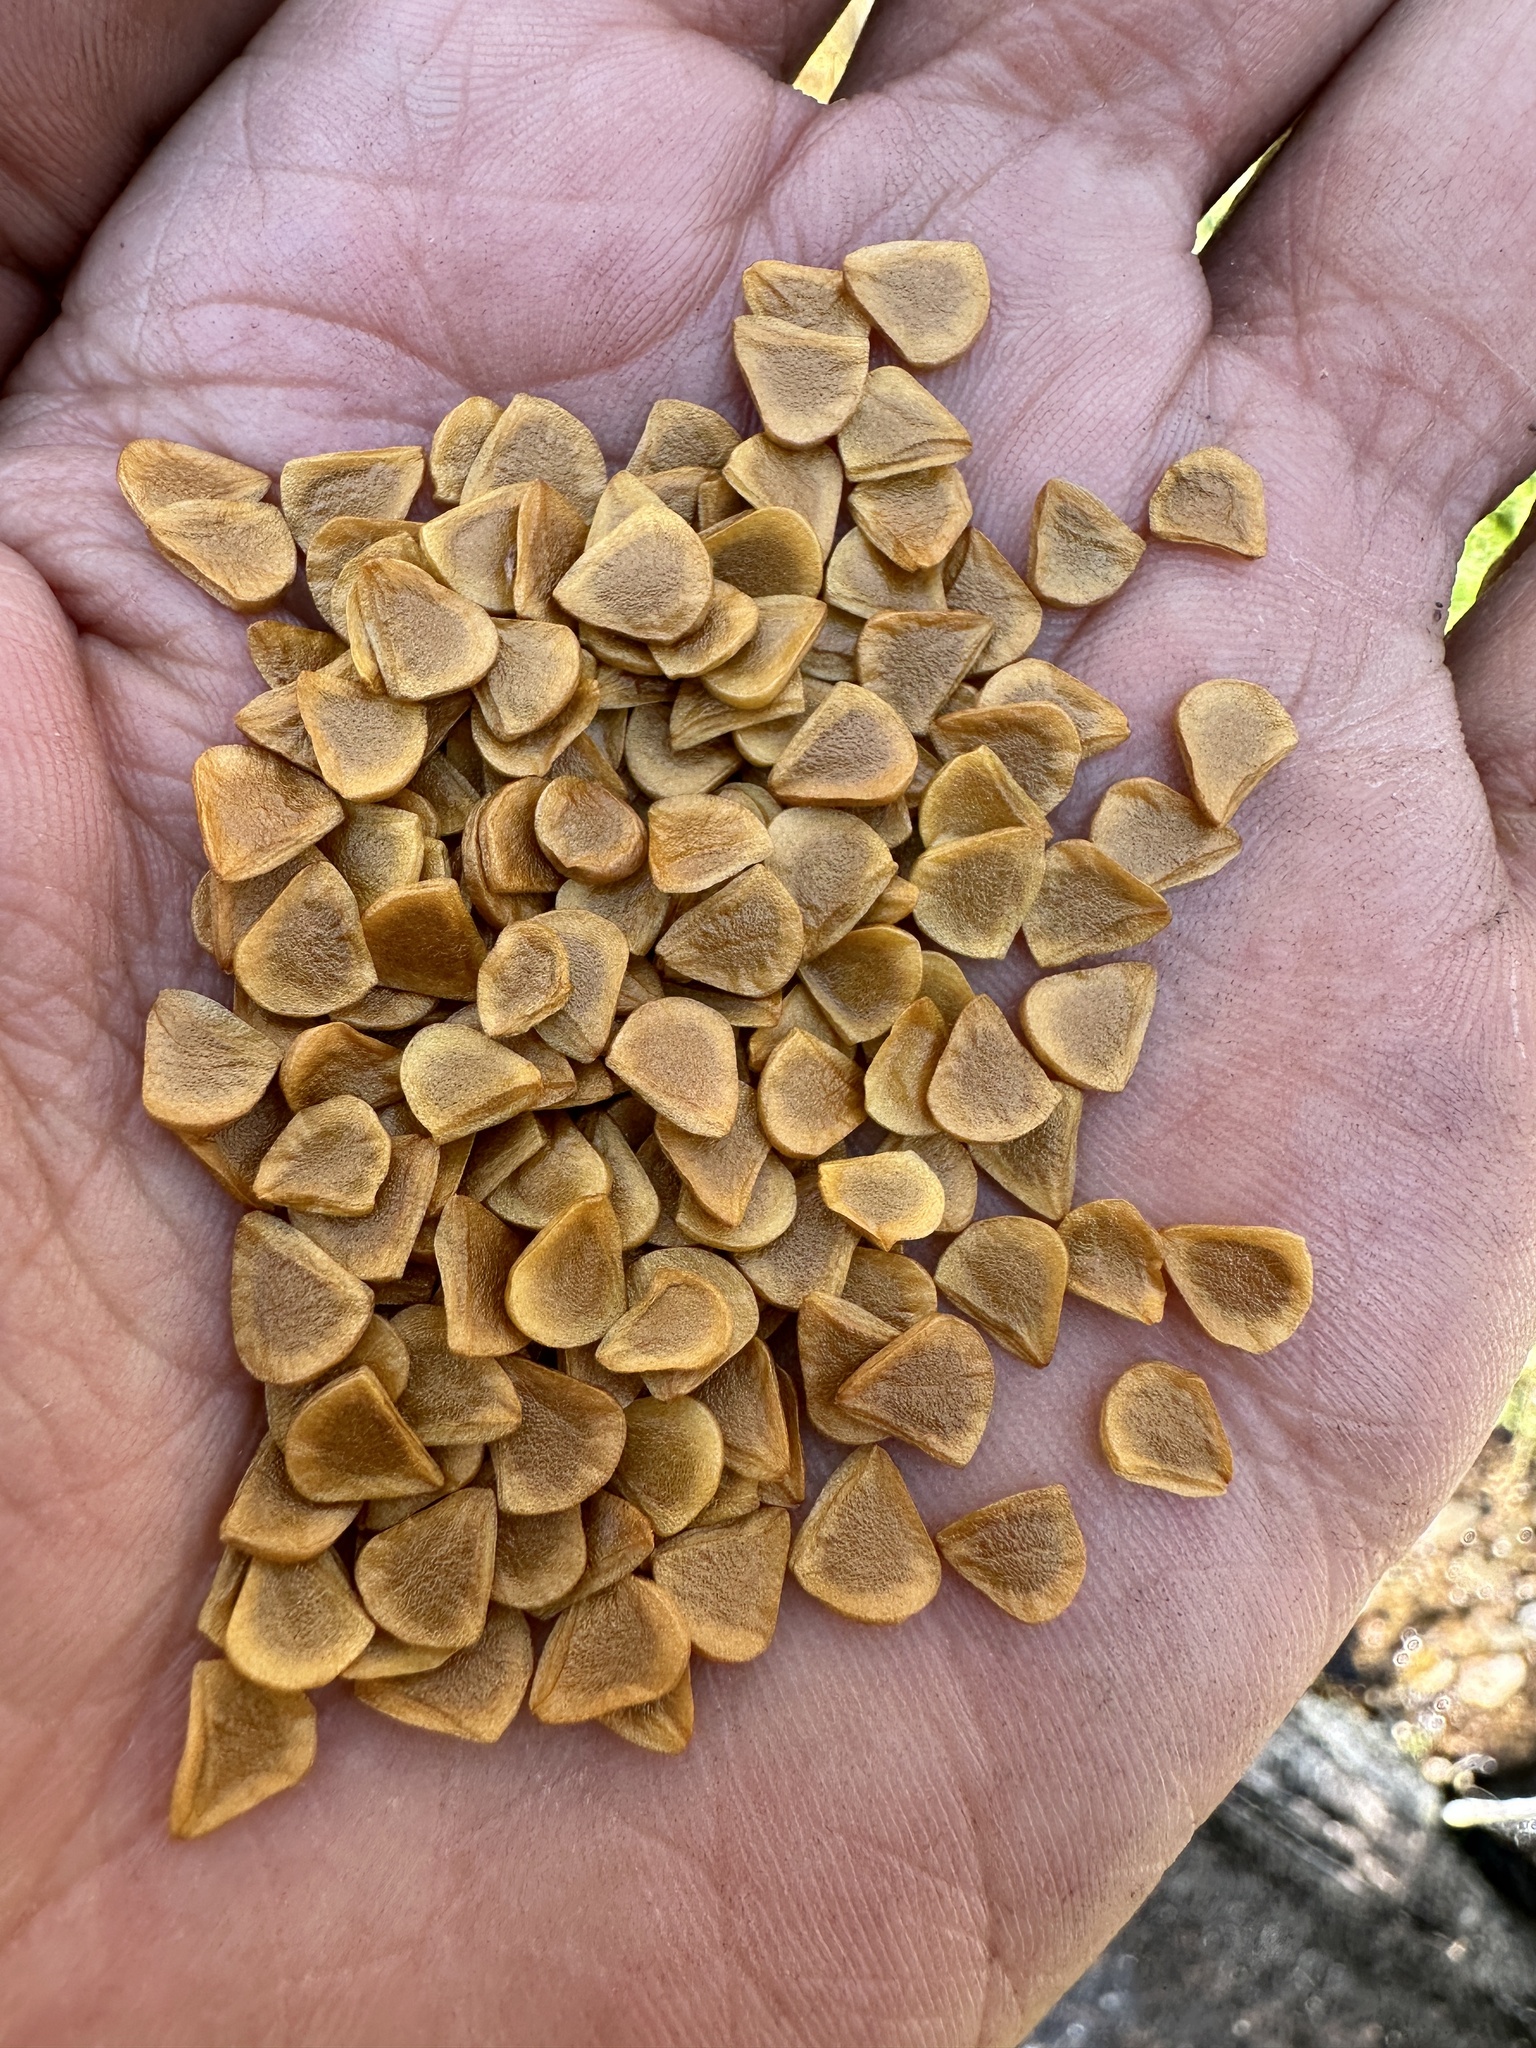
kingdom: Plantae
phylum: Tracheophyta
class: Liliopsida
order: Liliales
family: Liliaceae
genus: Lilium
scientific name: Lilium pardalinum
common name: Panther lily
